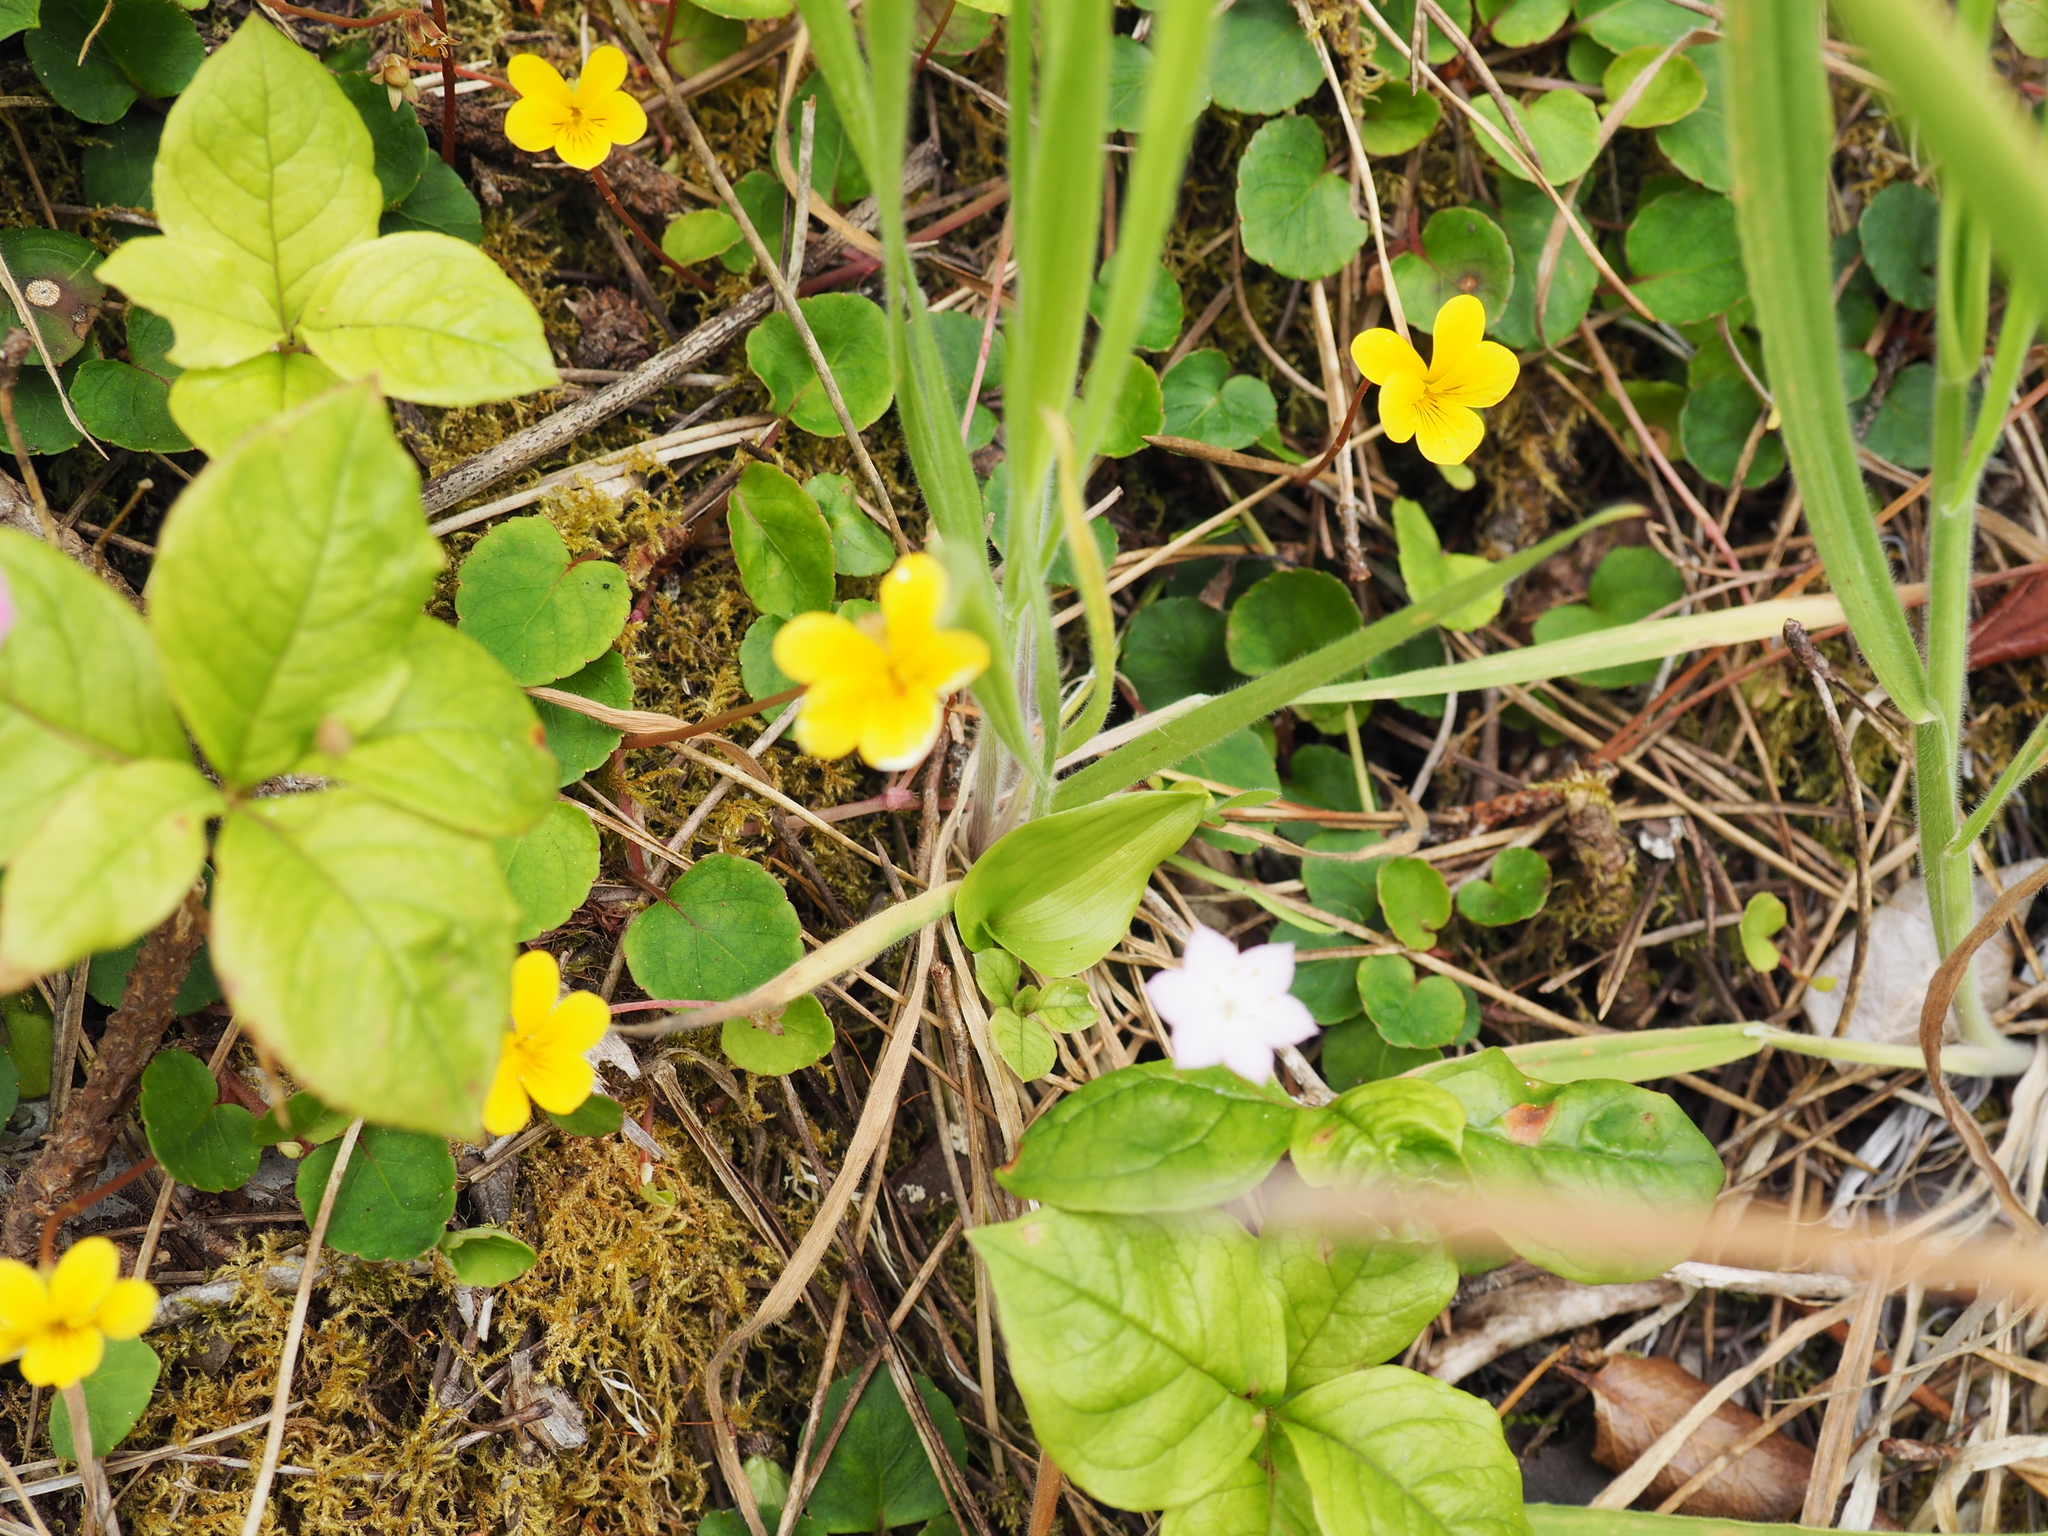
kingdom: Plantae
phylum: Tracheophyta
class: Magnoliopsida
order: Malpighiales
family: Violaceae
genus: Viola
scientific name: Viola sempervirens
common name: Evergreen violet
